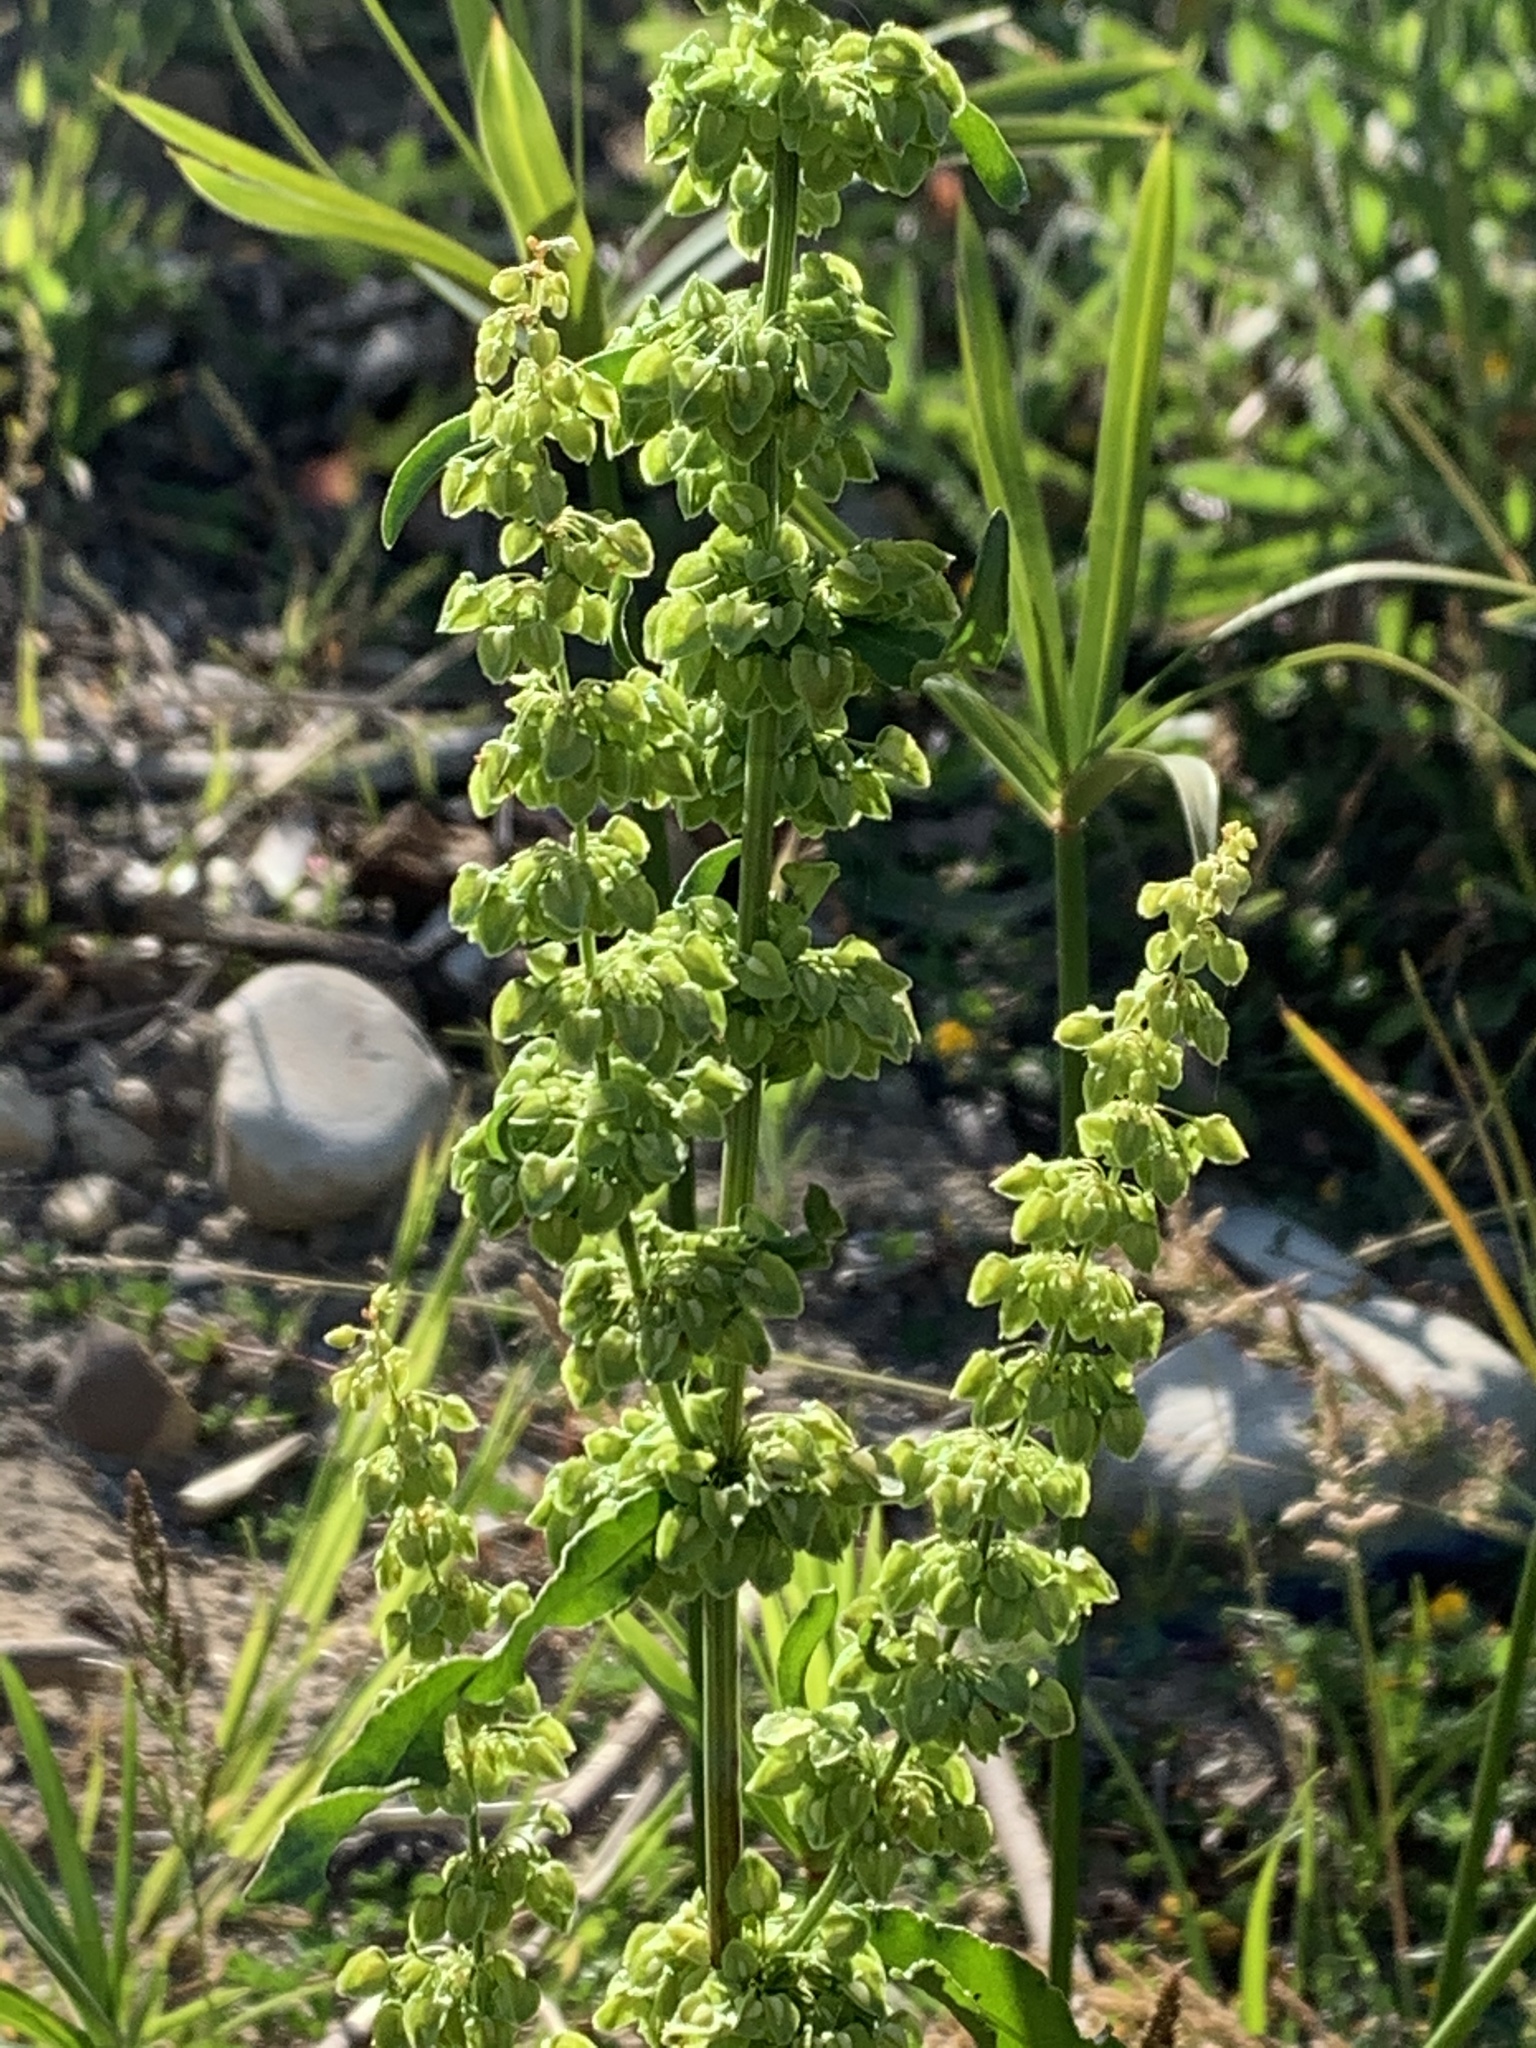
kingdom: Plantae
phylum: Tracheophyta
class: Magnoliopsida
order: Caryophyllales
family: Polygonaceae
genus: Rumex
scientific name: Rumex crispus
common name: Curled dock
